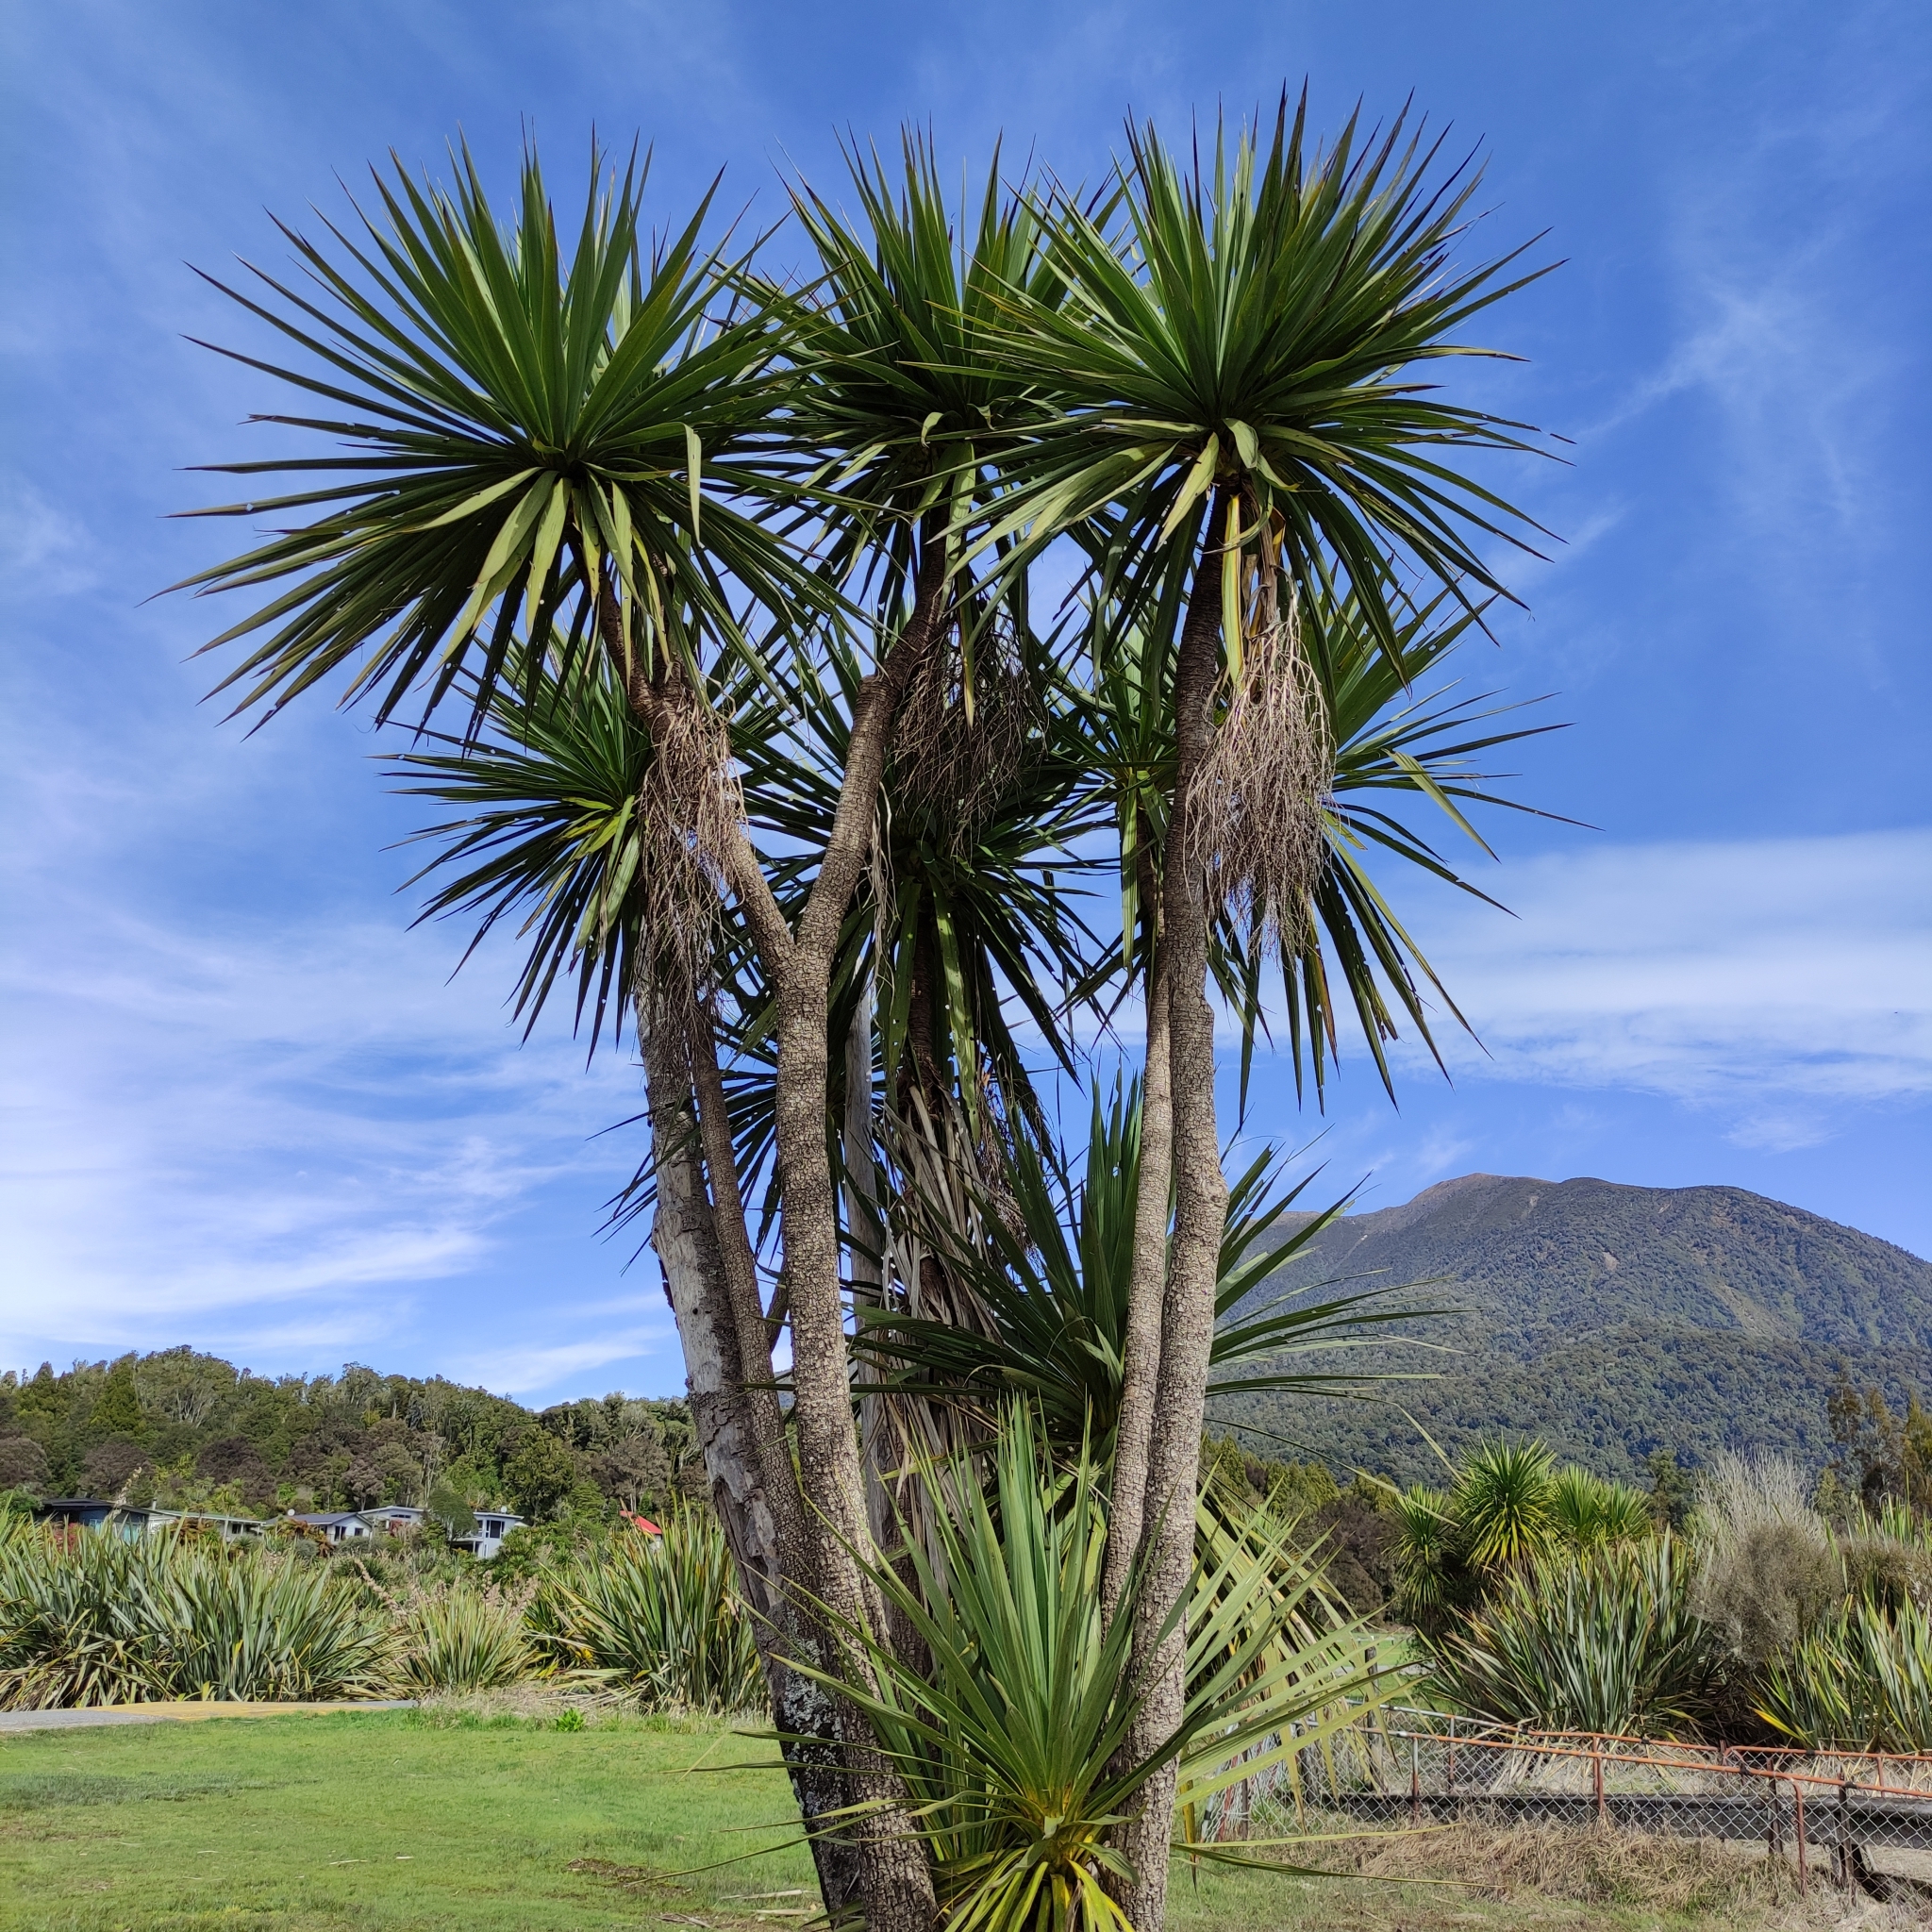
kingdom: Plantae
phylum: Tracheophyta
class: Liliopsida
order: Asparagales
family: Asparagaceae
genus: Cordyline
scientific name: Cordyline australis
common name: Cabbage-palm
